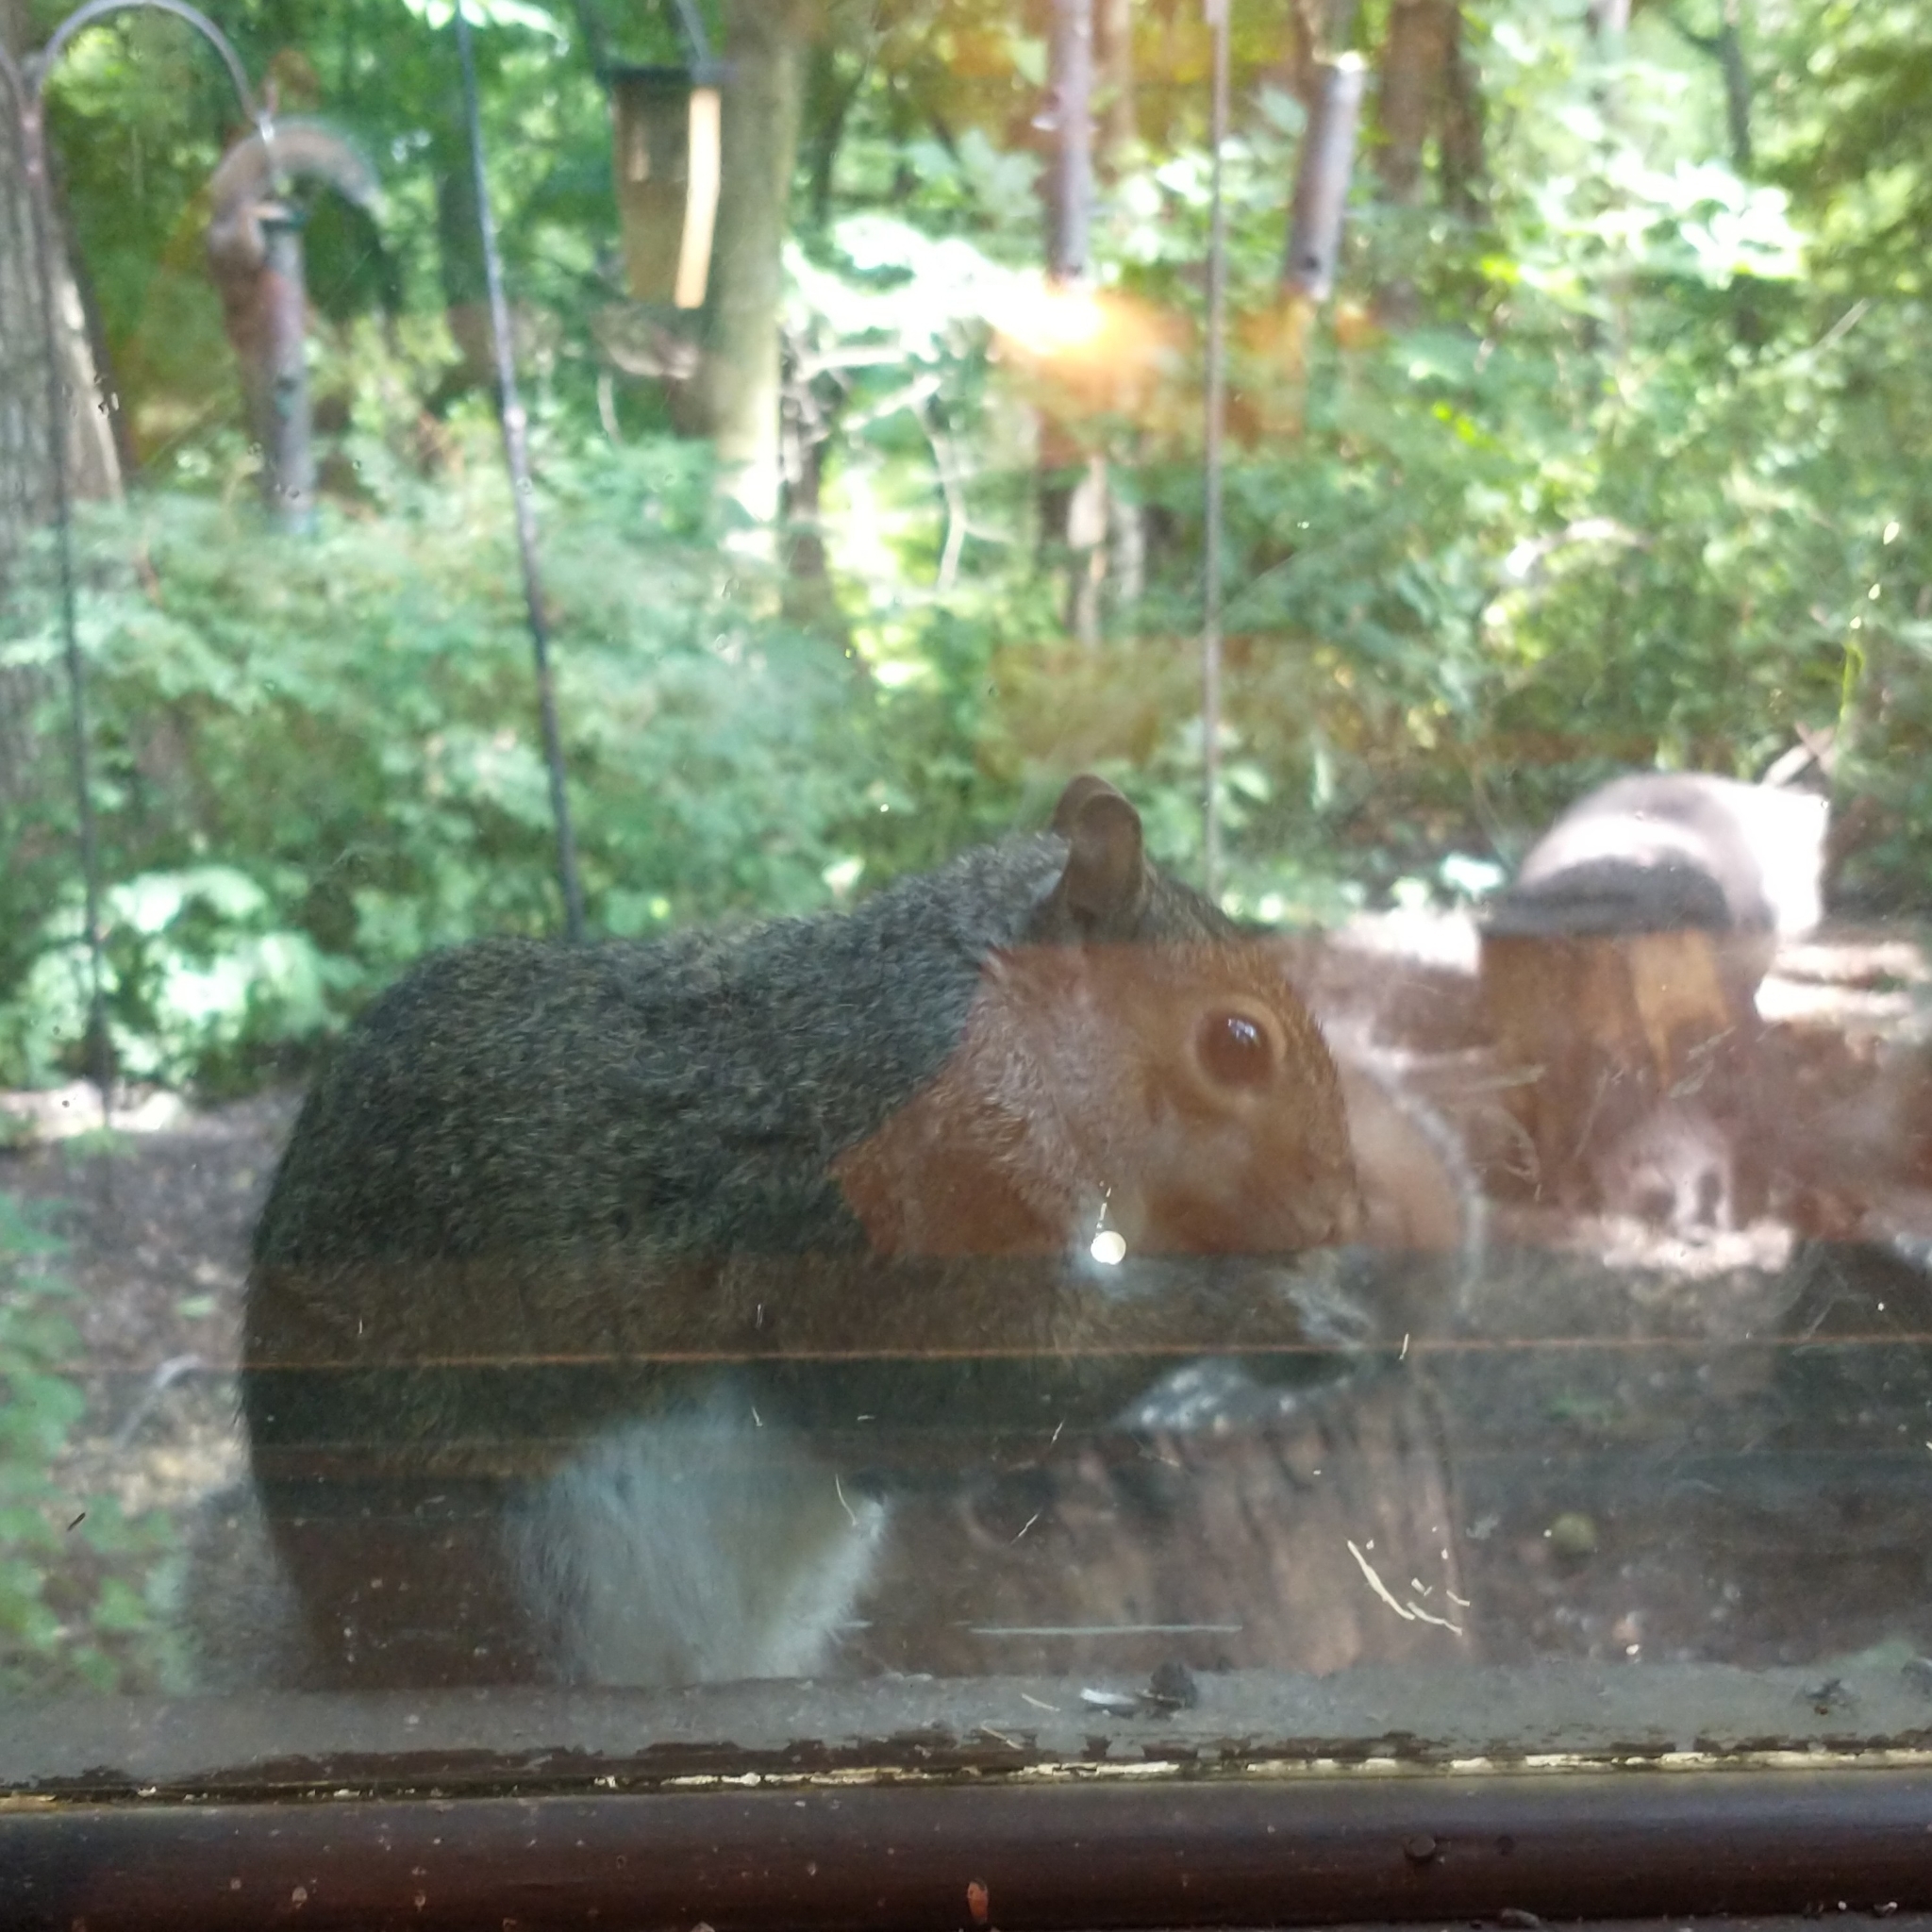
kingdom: Animalia
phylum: Chordata
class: Mammalia
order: Rodentia
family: Sciuridae
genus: Sciurus
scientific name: Sciurus carolinensis
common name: Eastern gray squirrel
